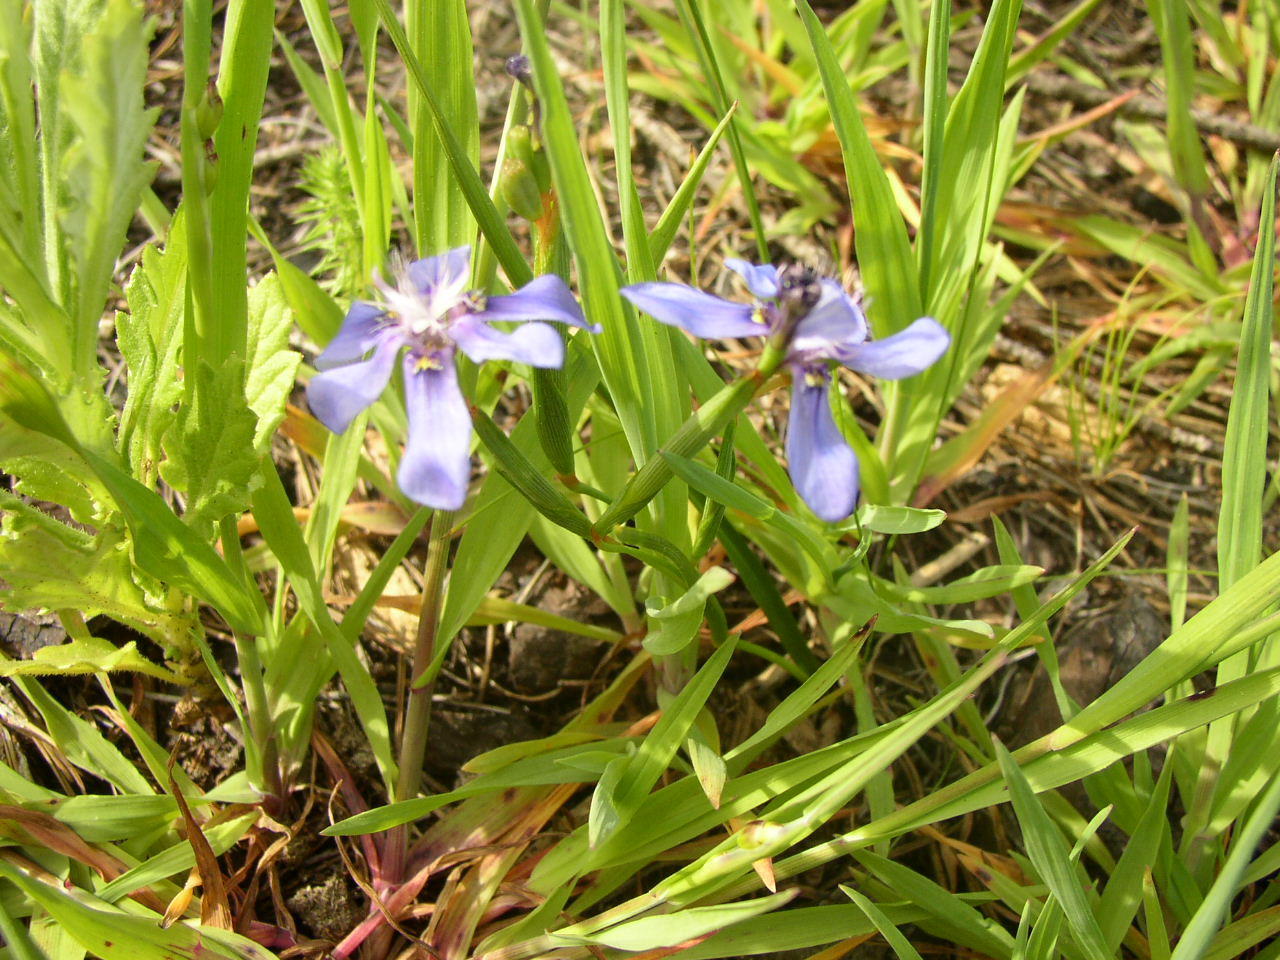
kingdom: Plantae
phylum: Tracheophyta
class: Liliopsida
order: Asparagales
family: Iridaceae
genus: Moraea
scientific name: Moraea lugubris
